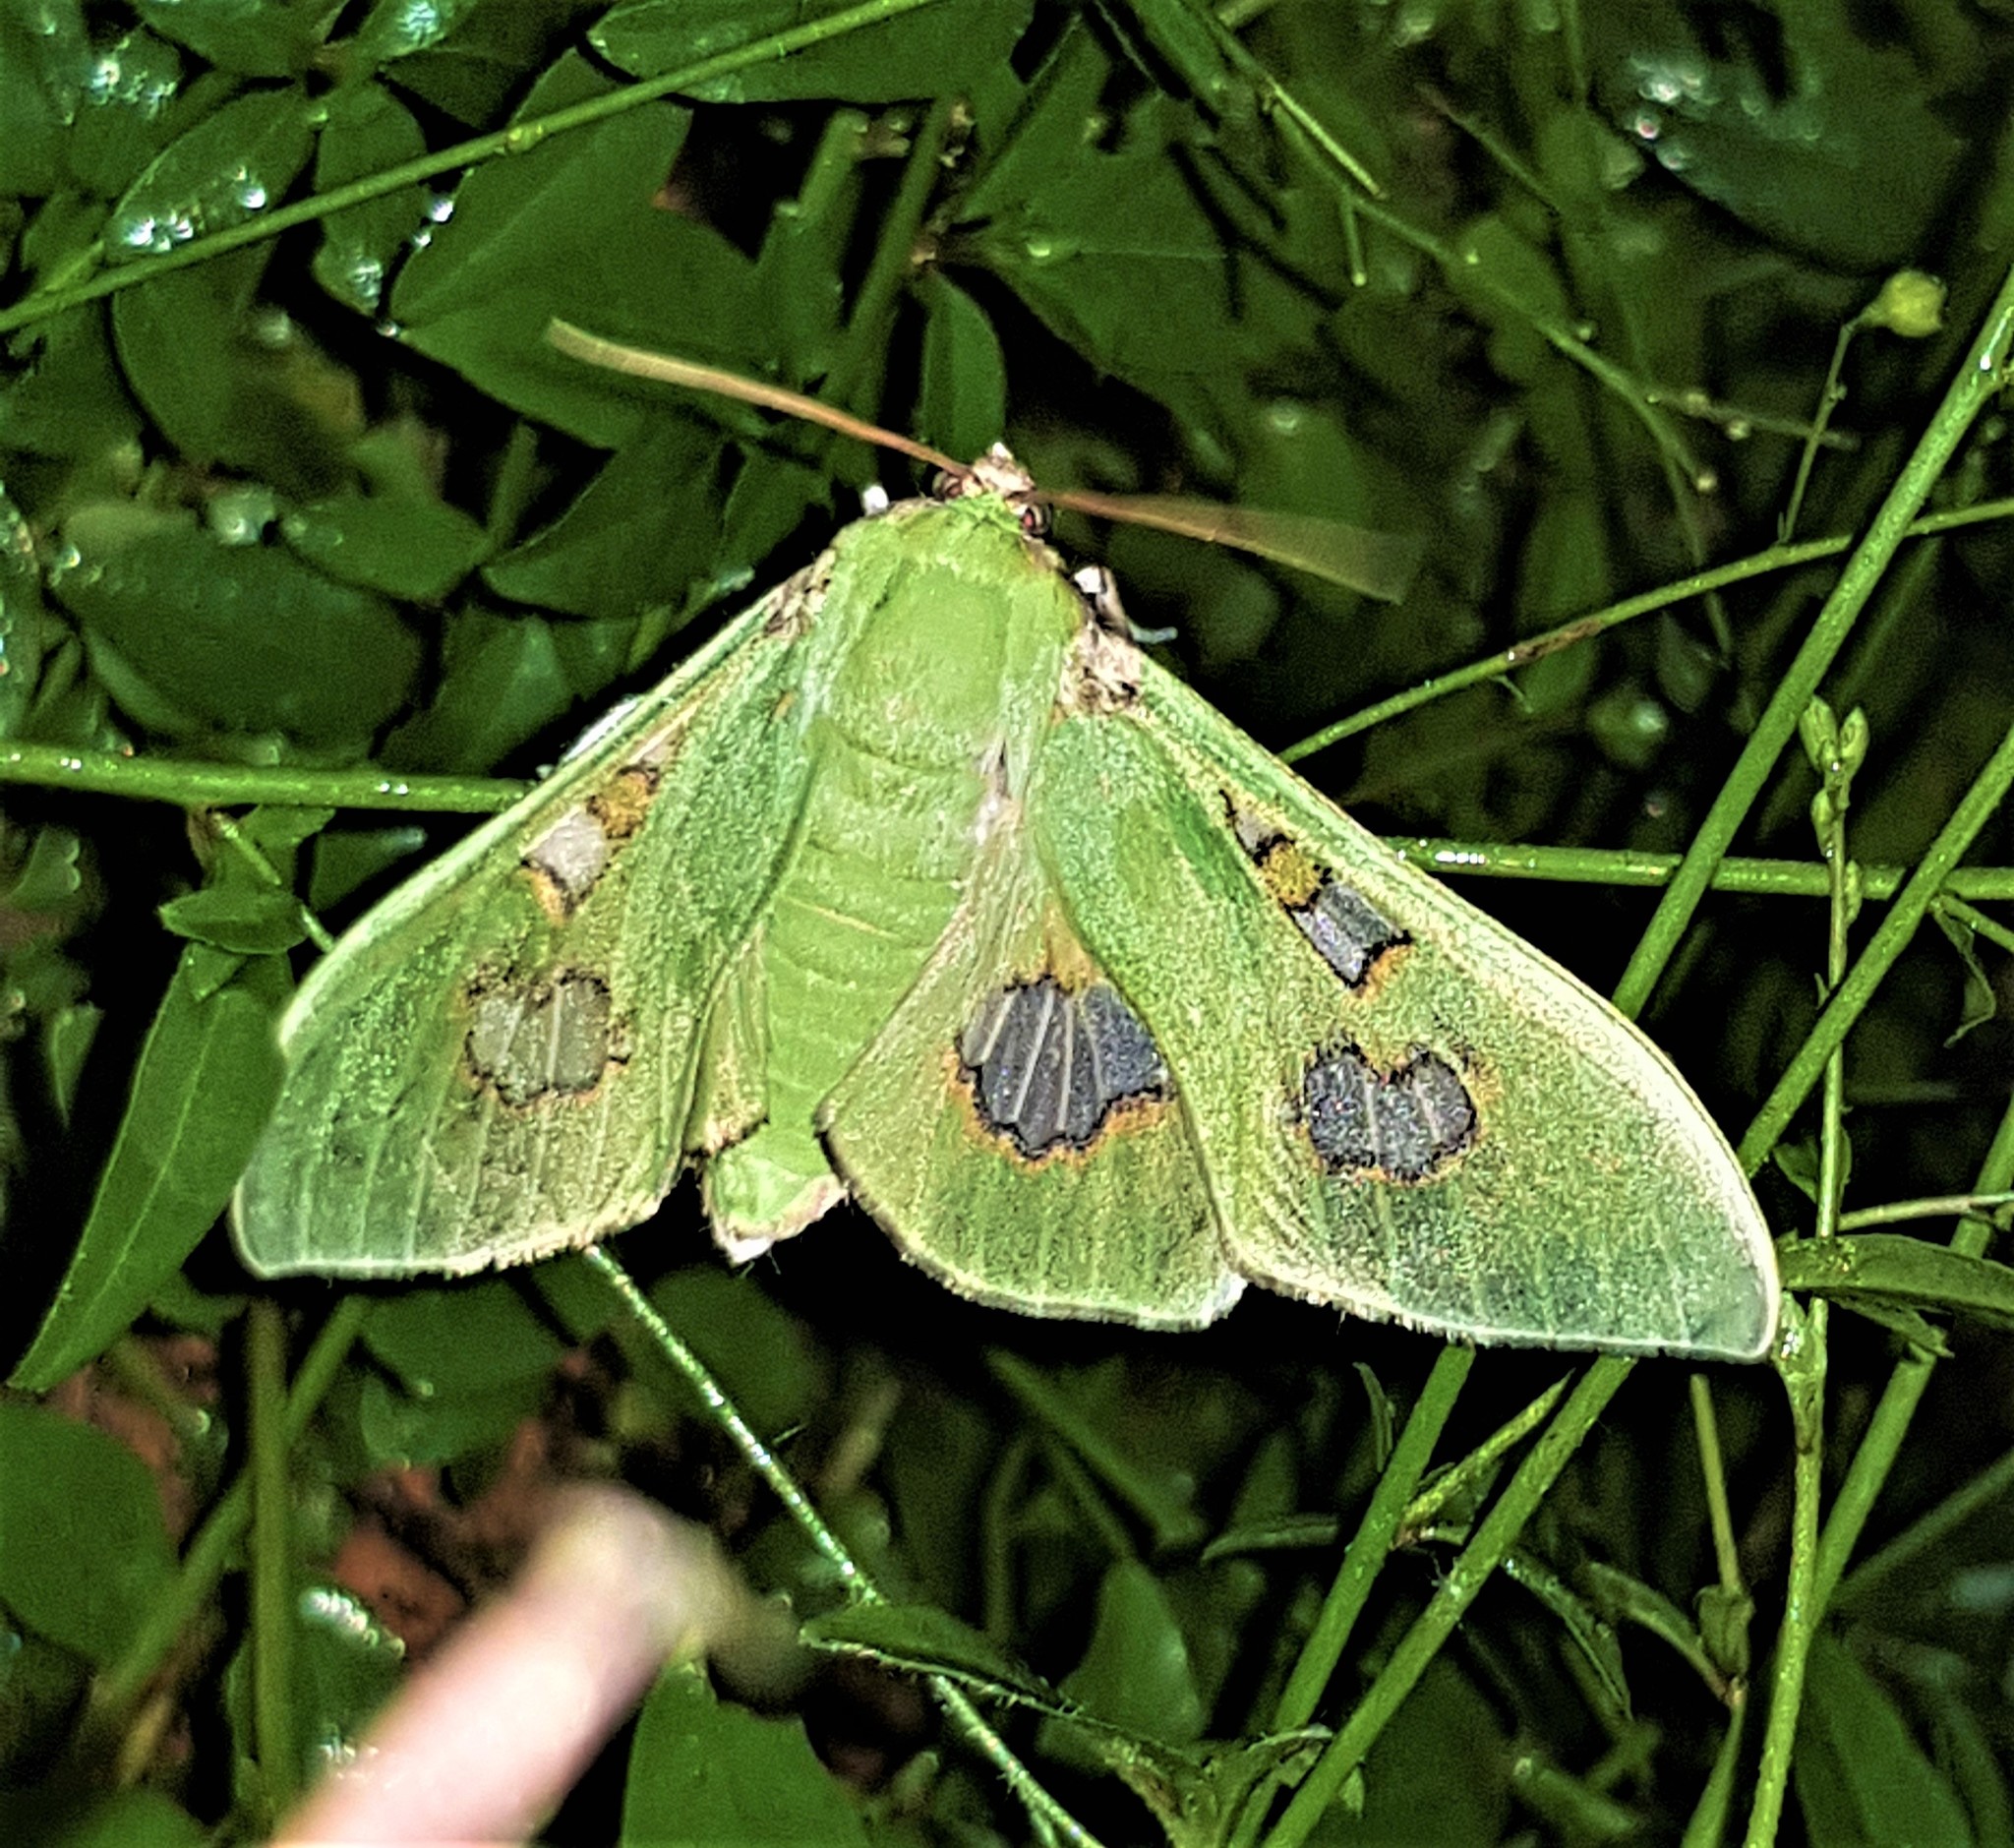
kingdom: Animalia
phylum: Arthropoda
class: Insecta
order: Lepidoptera
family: Crambidae
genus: Siga
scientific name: Siga liris
